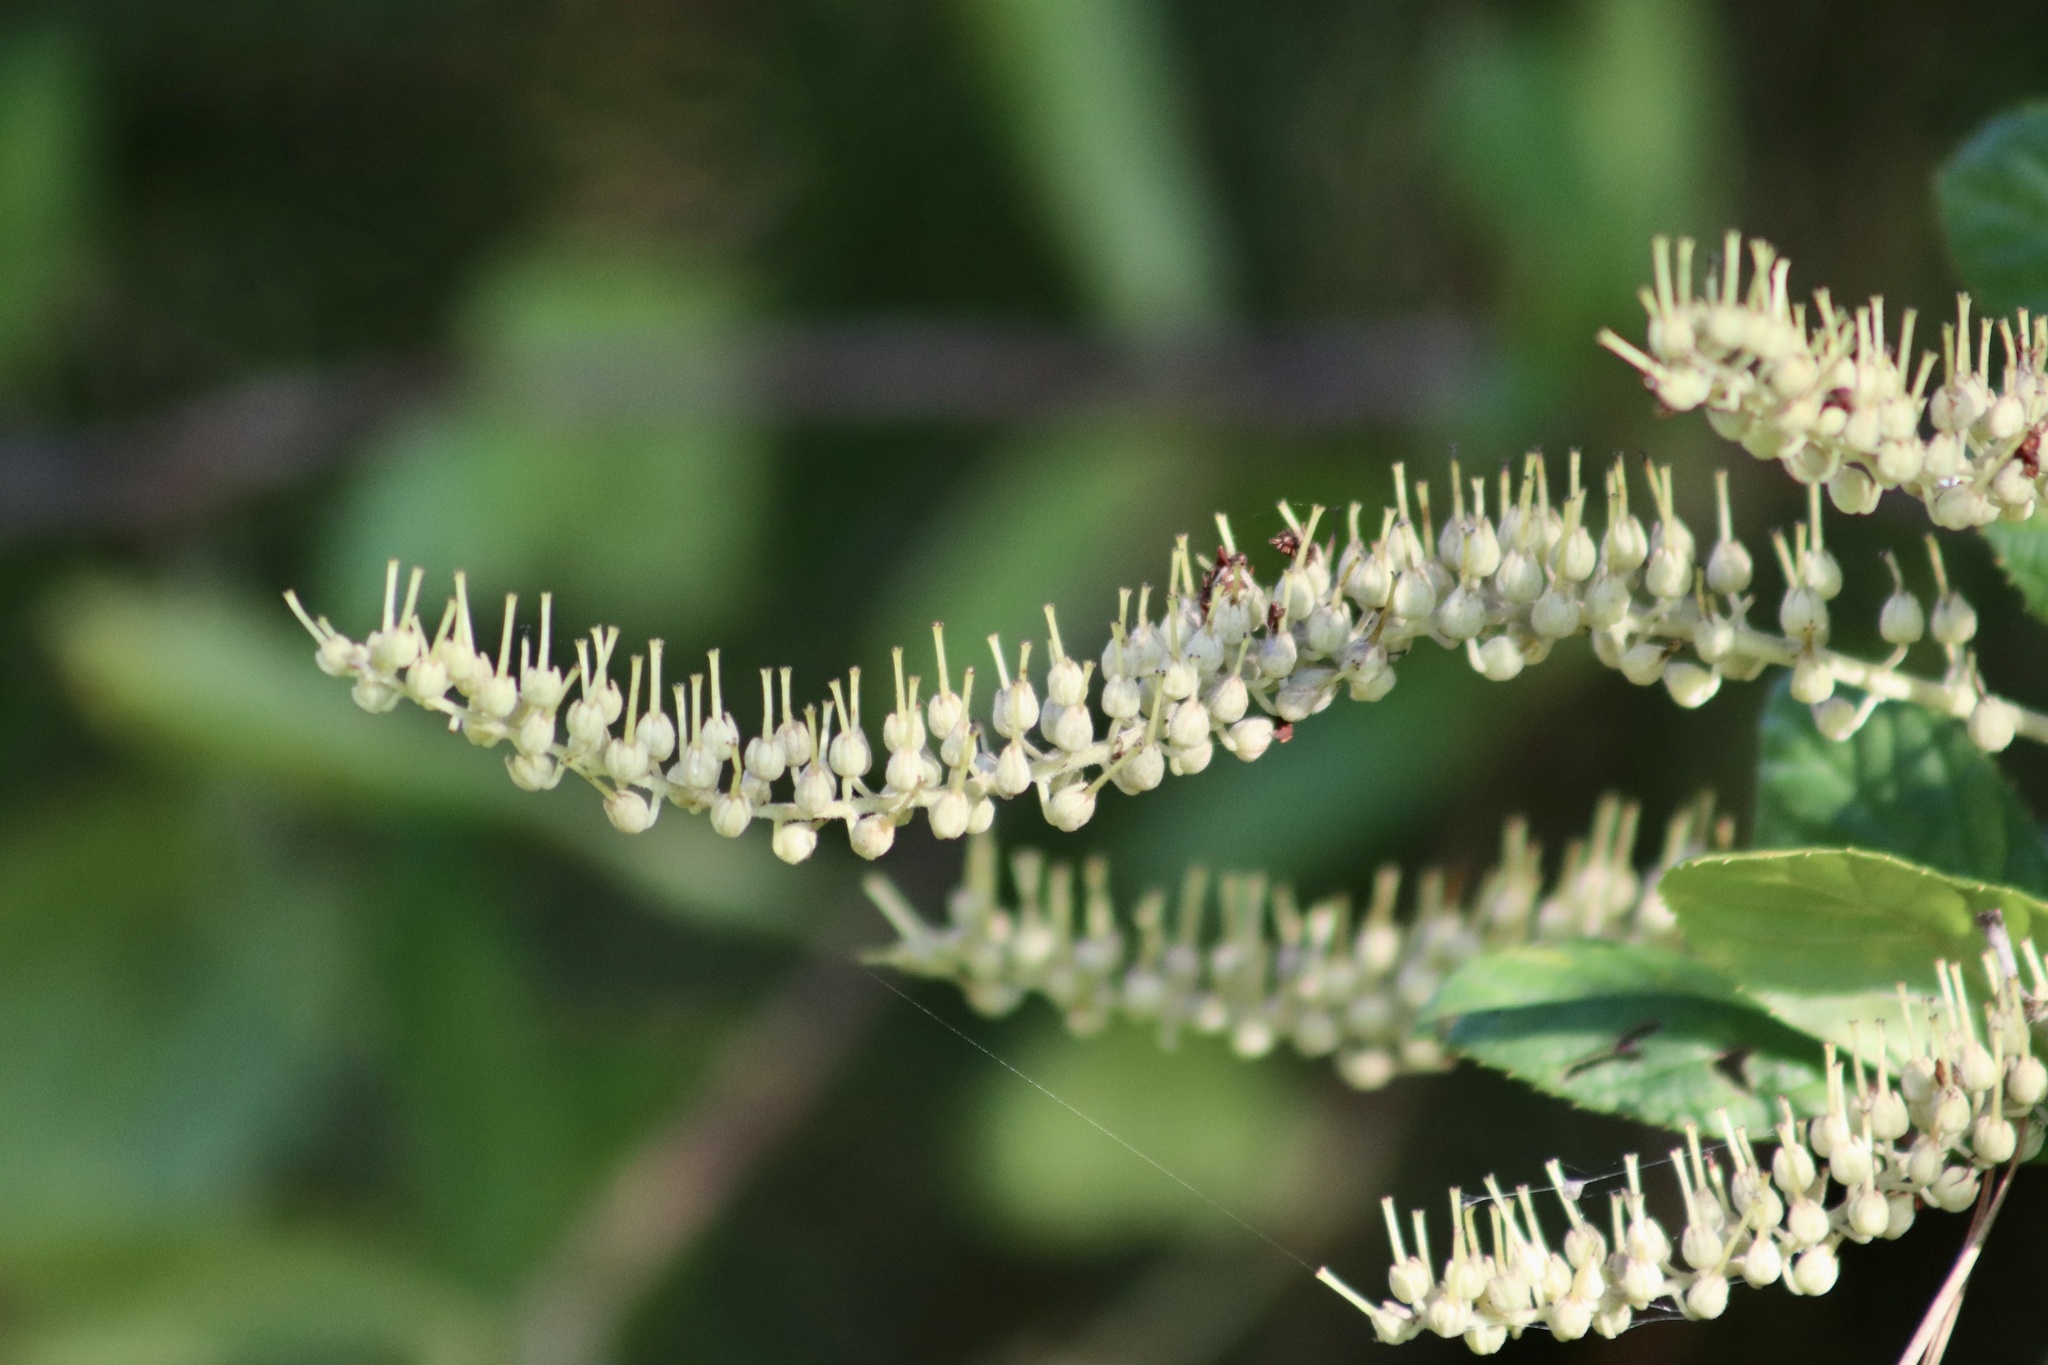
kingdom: Plantae
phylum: Tracheophyta
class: Magnoliopsida
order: Ericales
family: Clethraceae
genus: Clethra
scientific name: Clethra alnifolia
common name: Sweet pepperbush
